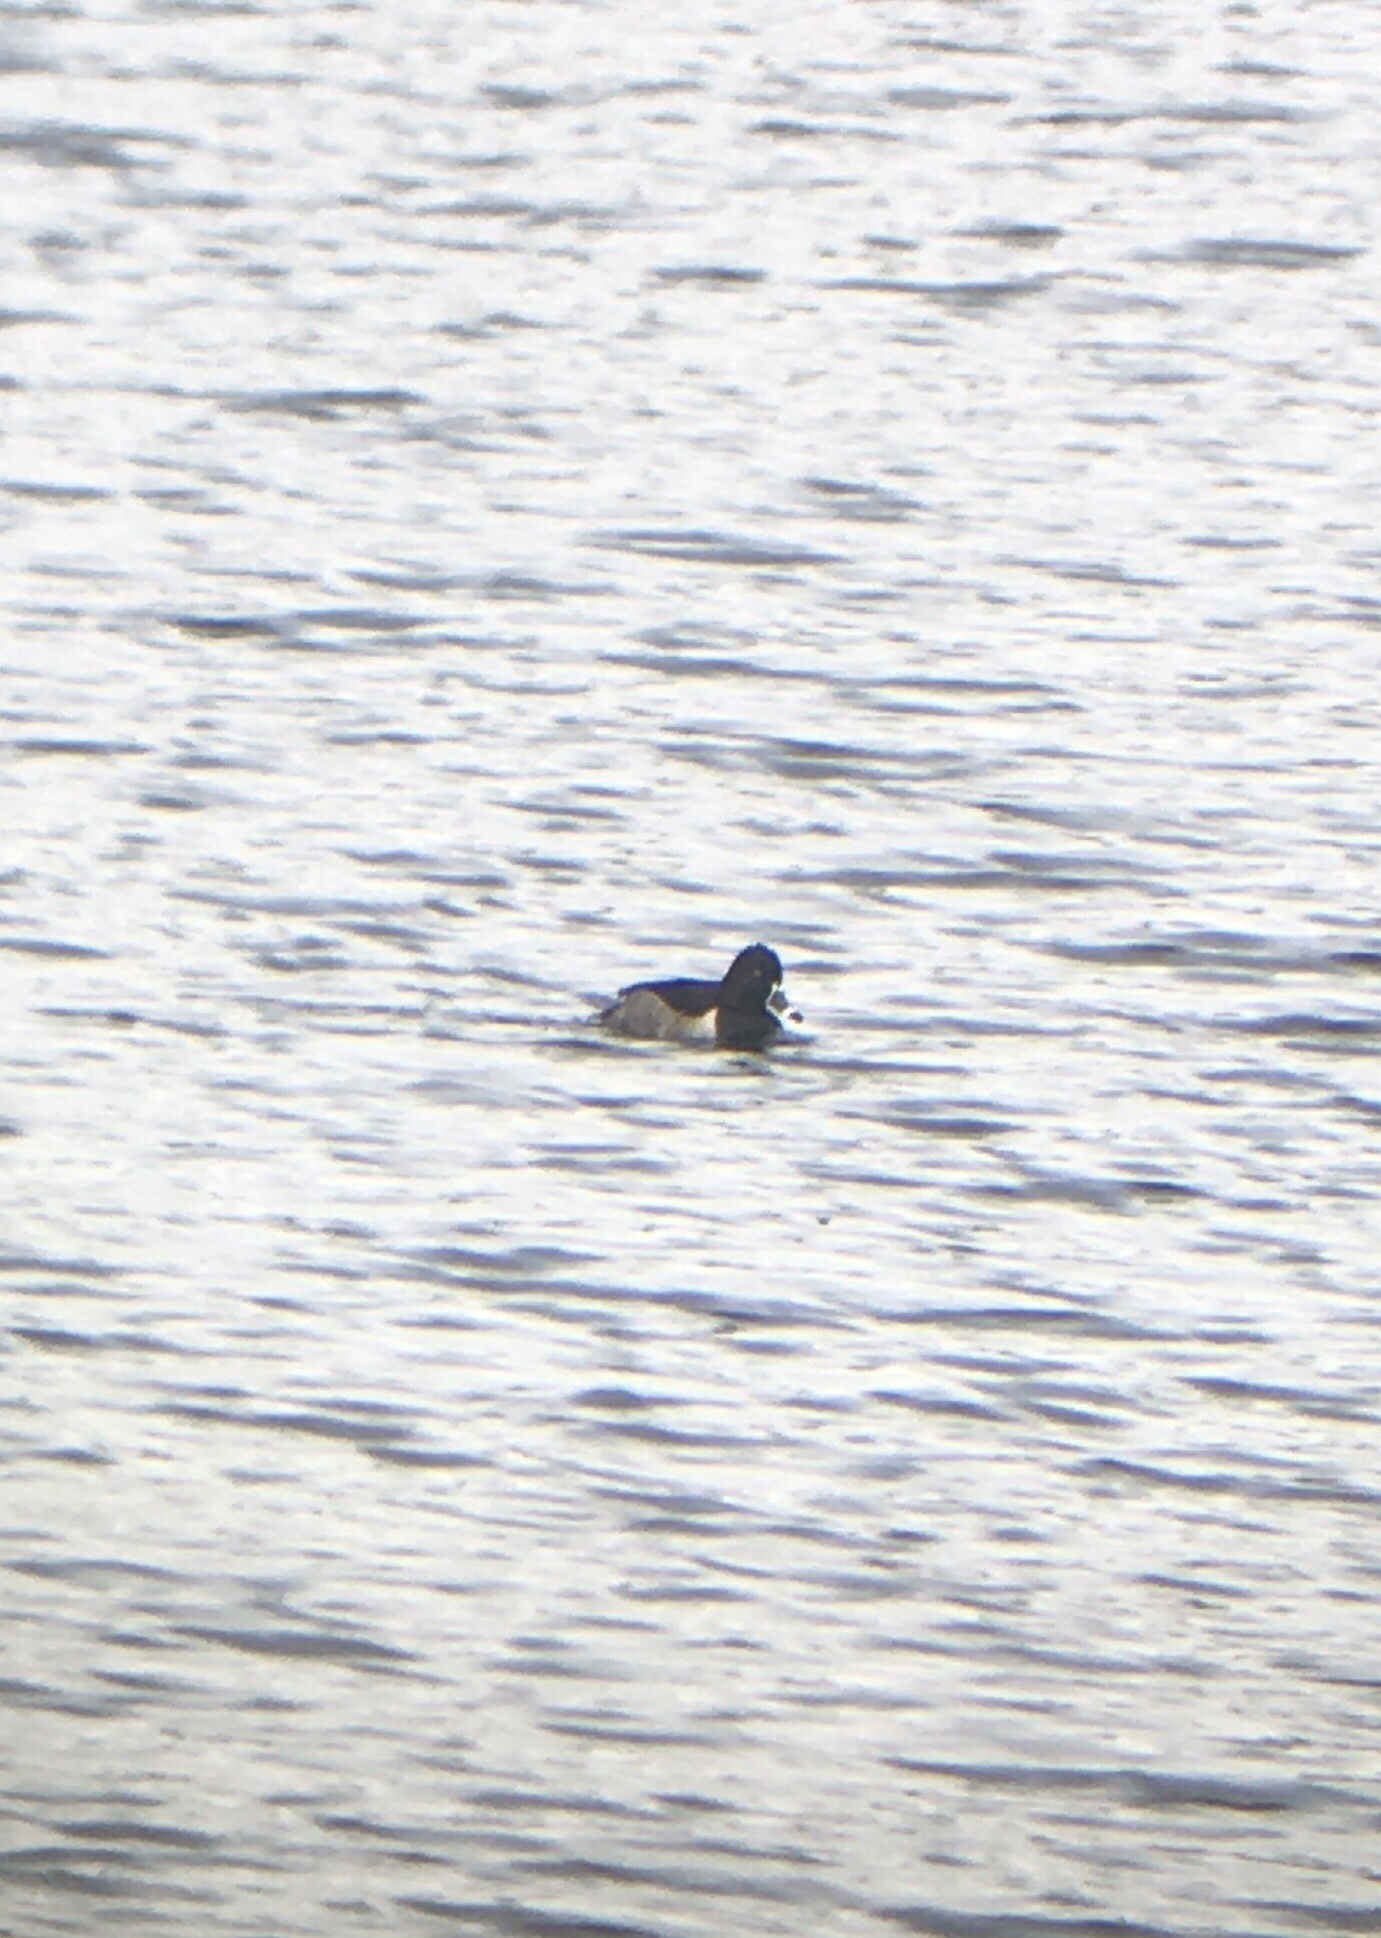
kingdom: Animalia
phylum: Chordata
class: Aves
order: Anseriformes
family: Anatidae
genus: Aythya
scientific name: Aythya collaris
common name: Ring-necked duck
